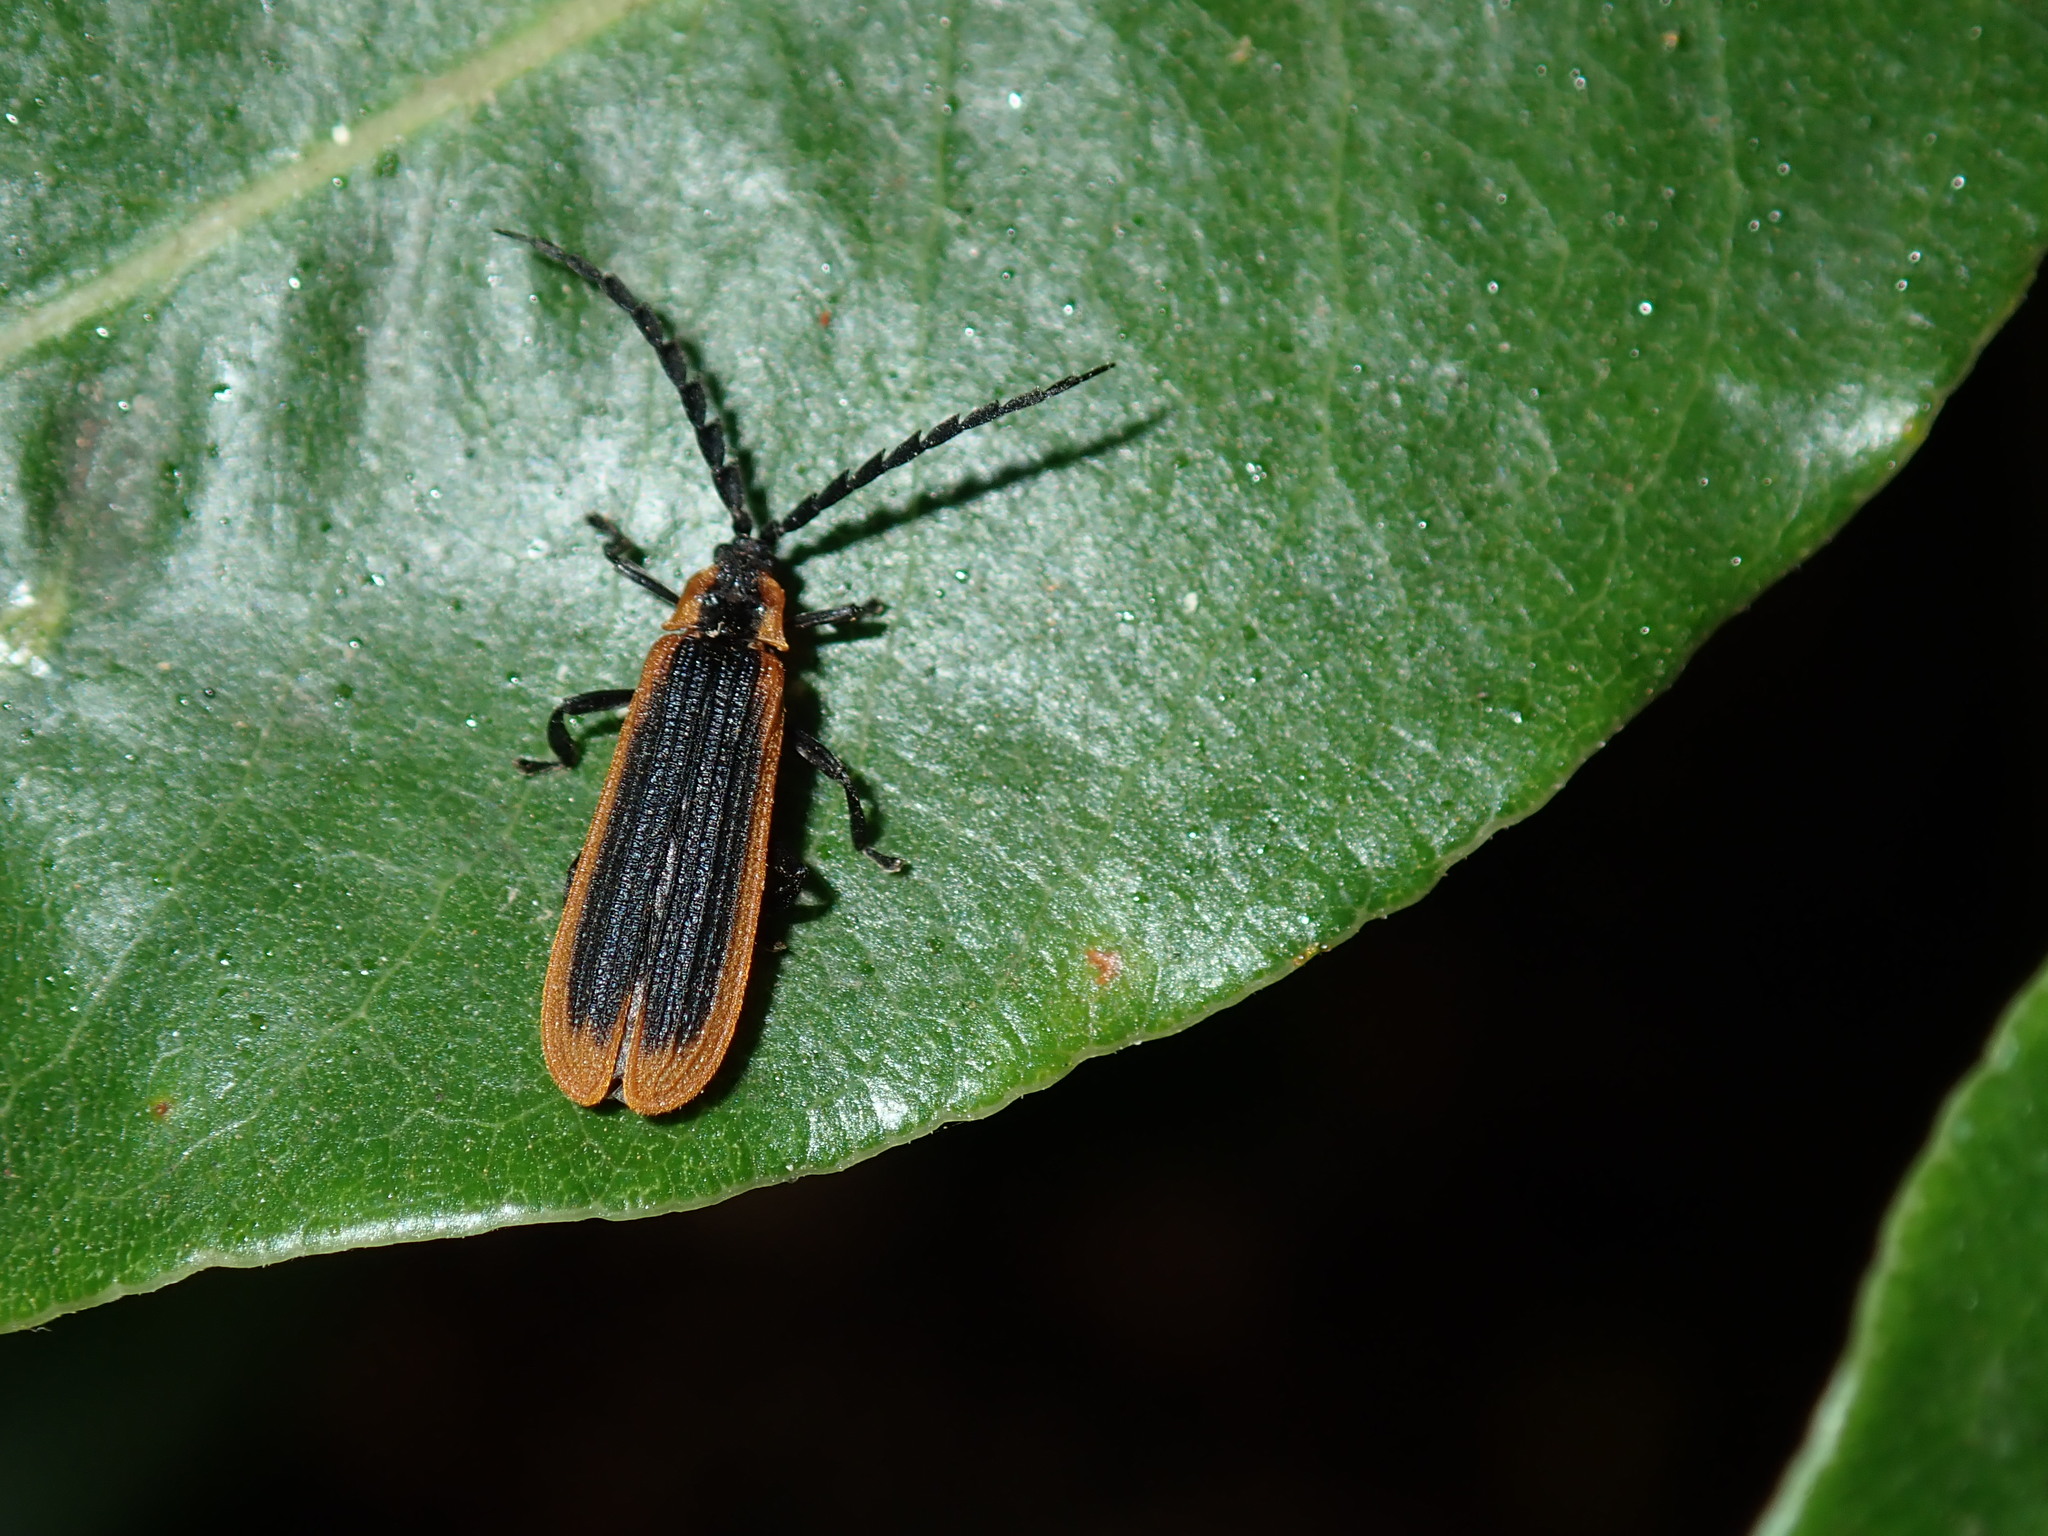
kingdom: Animalia
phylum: Arthropoda
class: Insecta
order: Coleoptera
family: Lycidae
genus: Xylobanus
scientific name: Xylobanus
